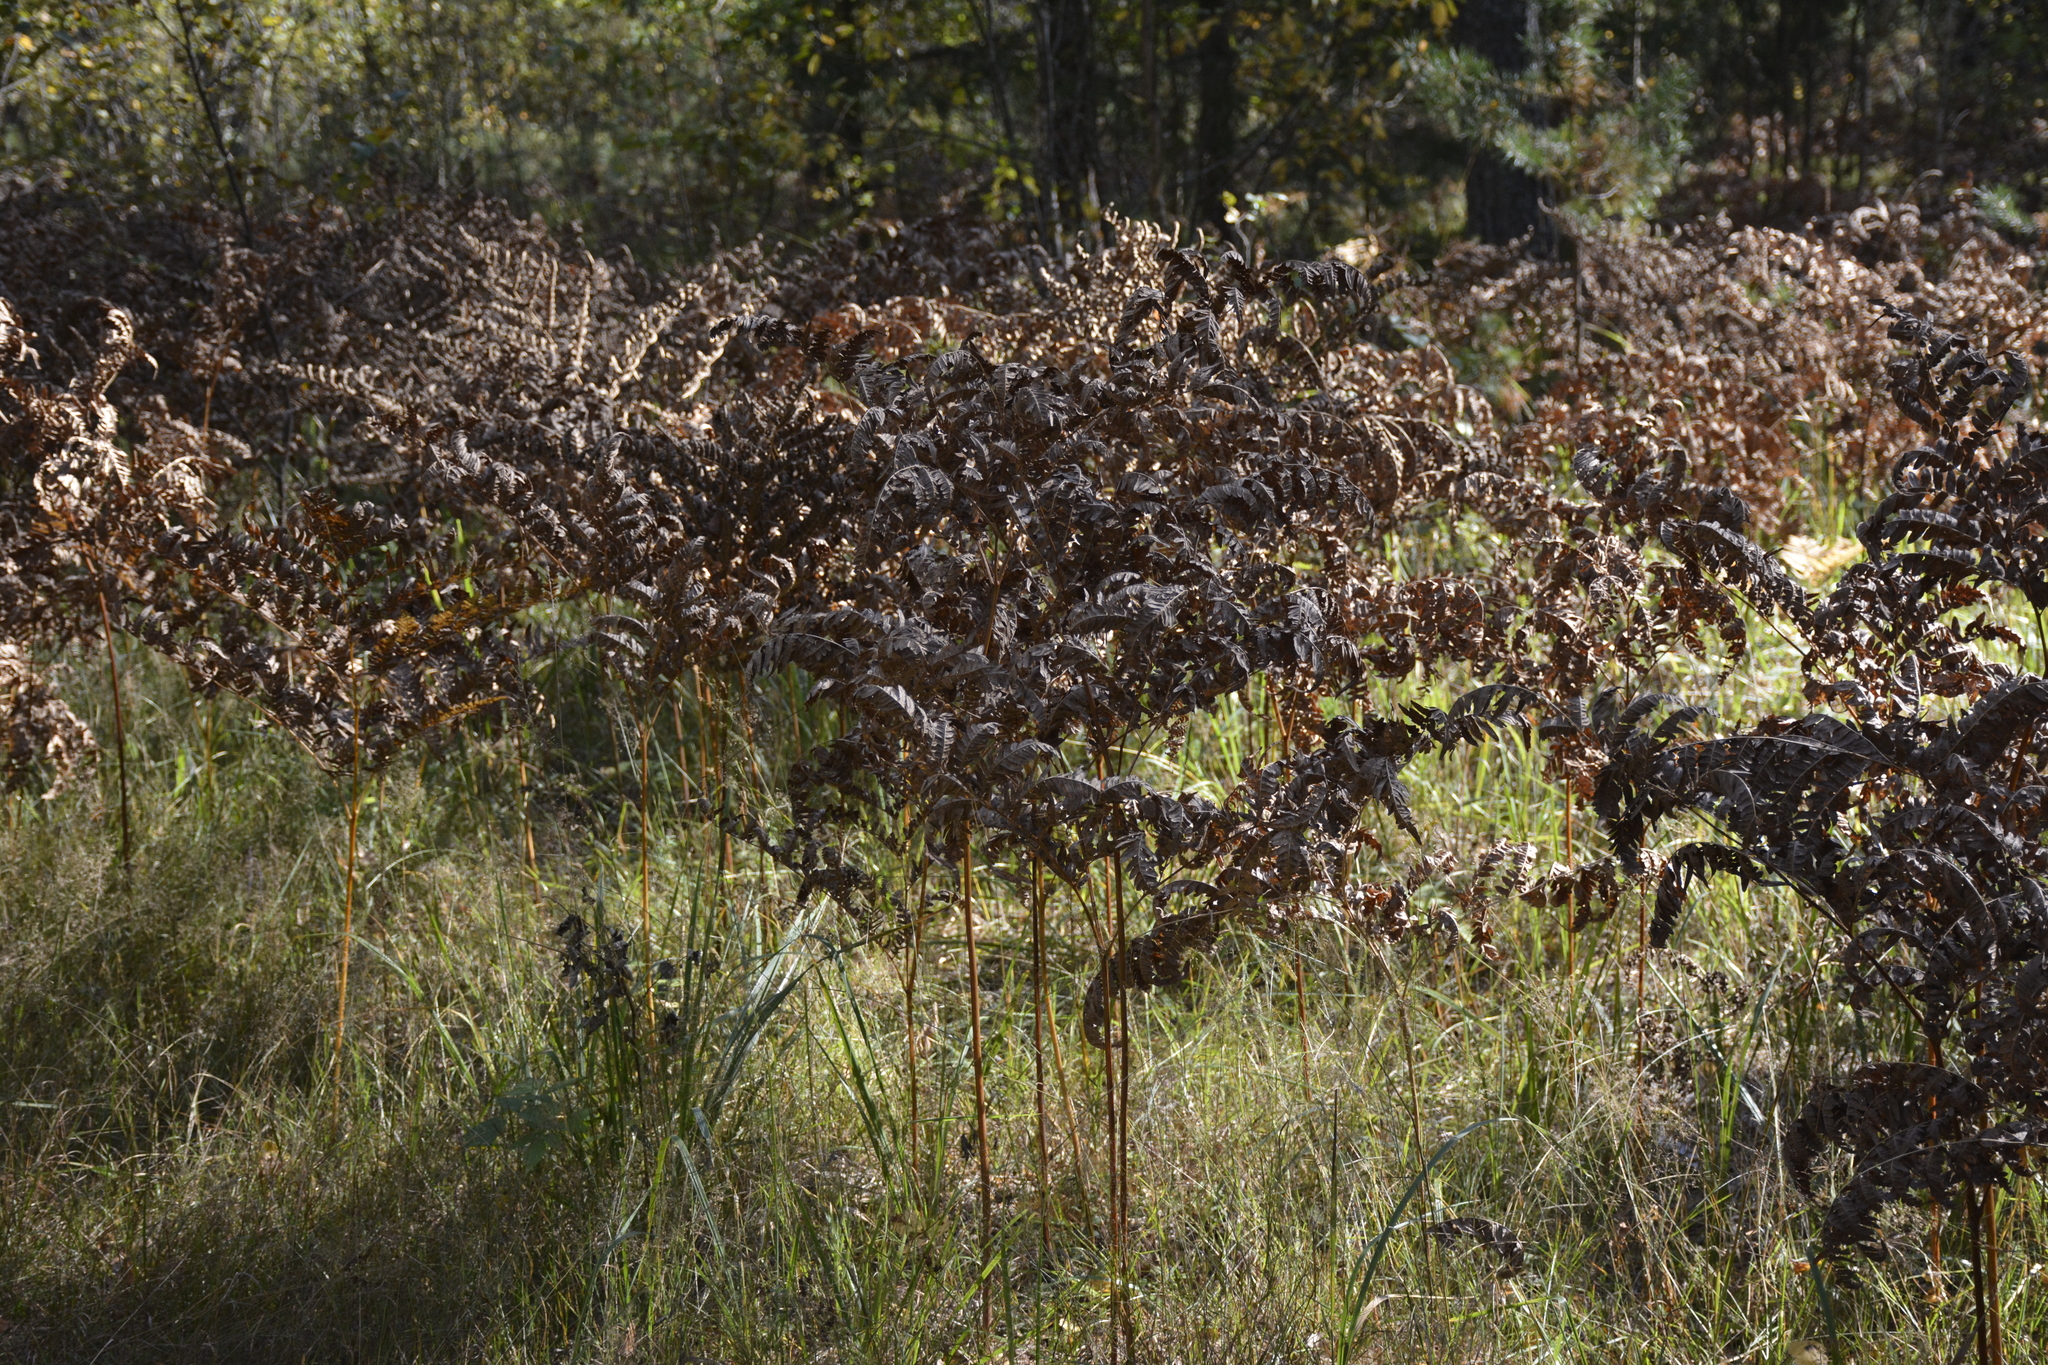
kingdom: Plantae
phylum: Tracheophyta
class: Polypodiopsida
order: Polypodiales
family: Dennstaedtiaceae
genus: Pteridium
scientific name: Pteridium aquilinum
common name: Bracken
